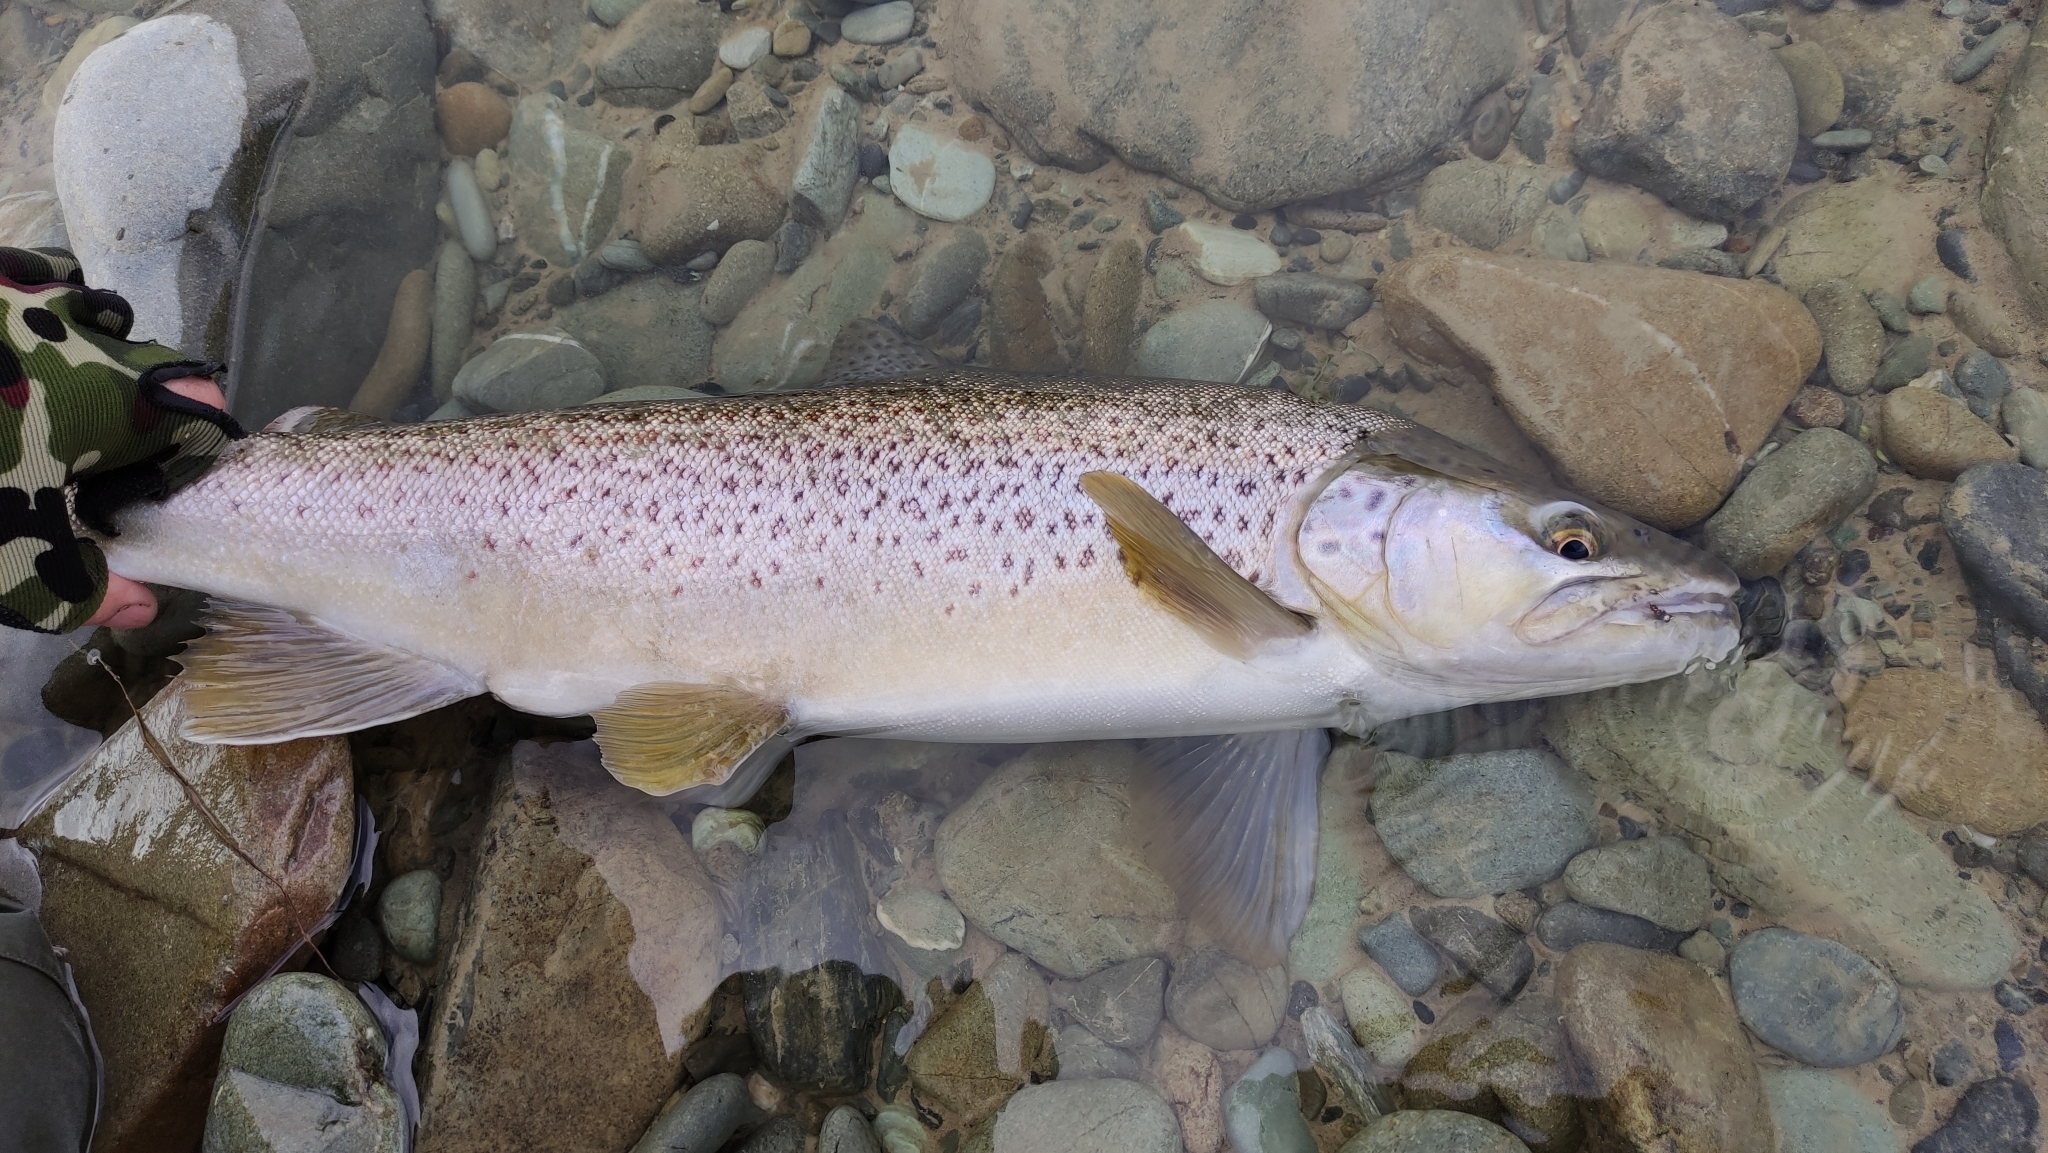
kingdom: Animalia
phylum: Chordata
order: Salmoniformes
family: Salmonidae
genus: Salmo
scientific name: Salmo trutta
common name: Brown trout
